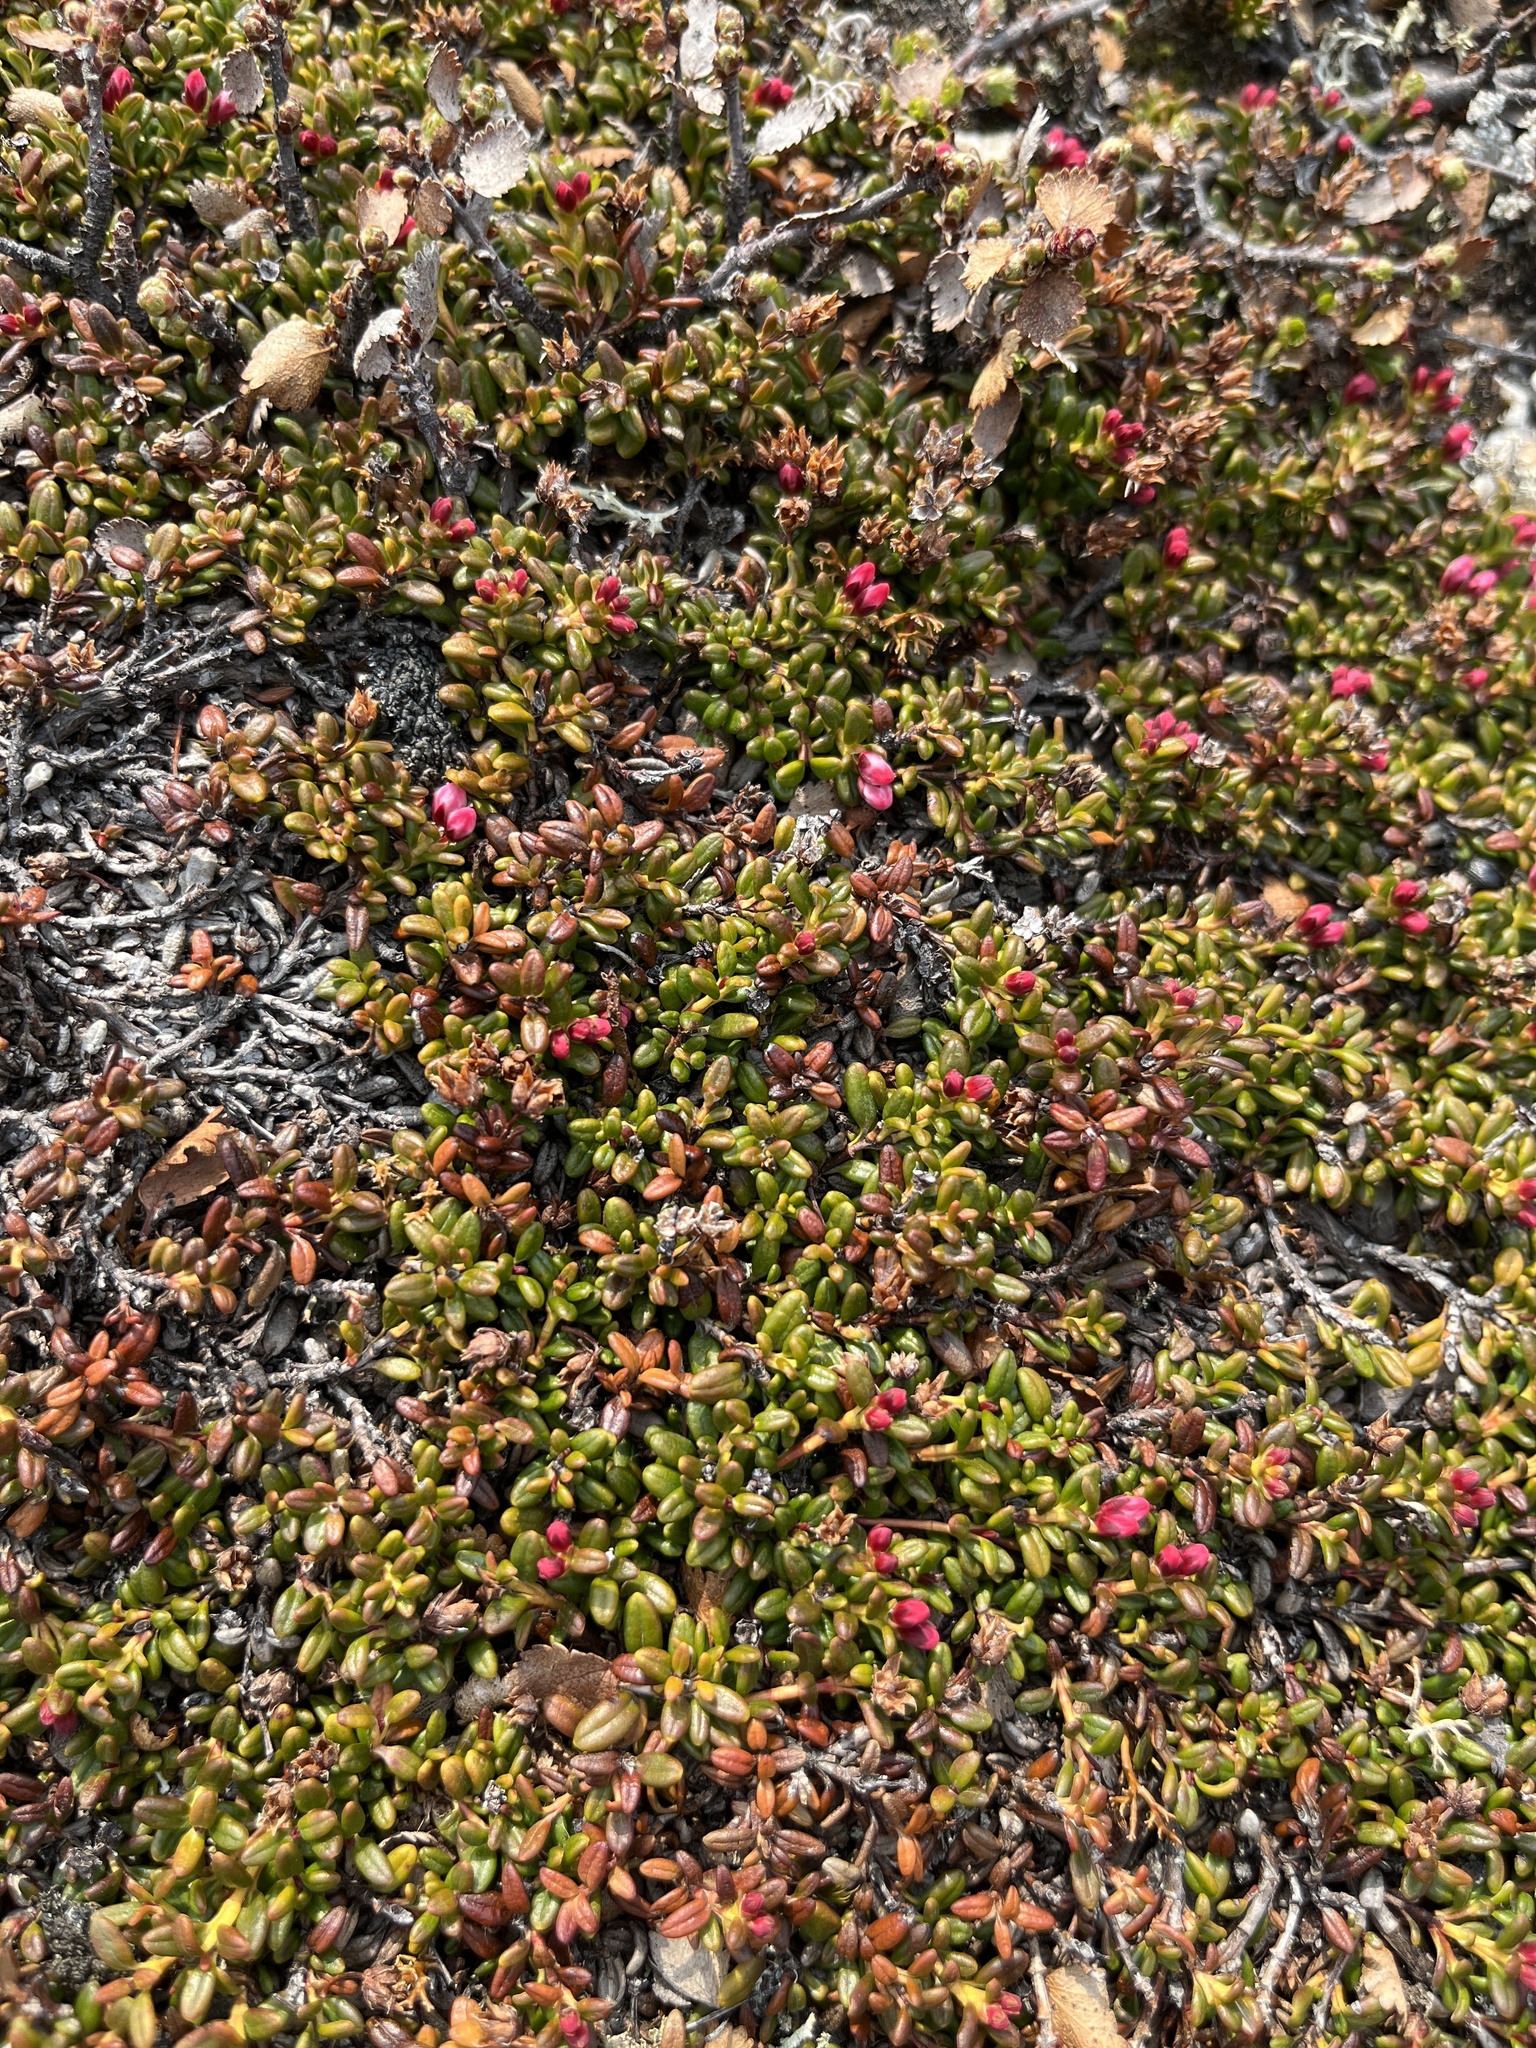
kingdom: Plantae
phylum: Tracheophyta
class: Magnoliopsida
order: Ericales
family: Ericaceae
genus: Kalmia
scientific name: Kalmia procumbens
